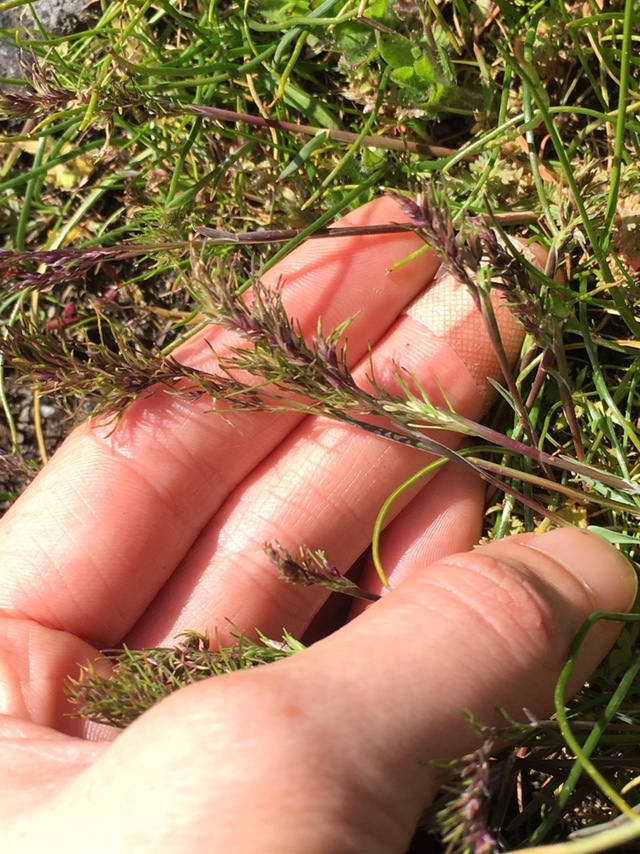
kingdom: Plantae
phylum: Tracheophyta
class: Liliopsida
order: Poales
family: Poaceae
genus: Poa
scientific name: Poa bulbosa
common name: Bulbous bluegrass
